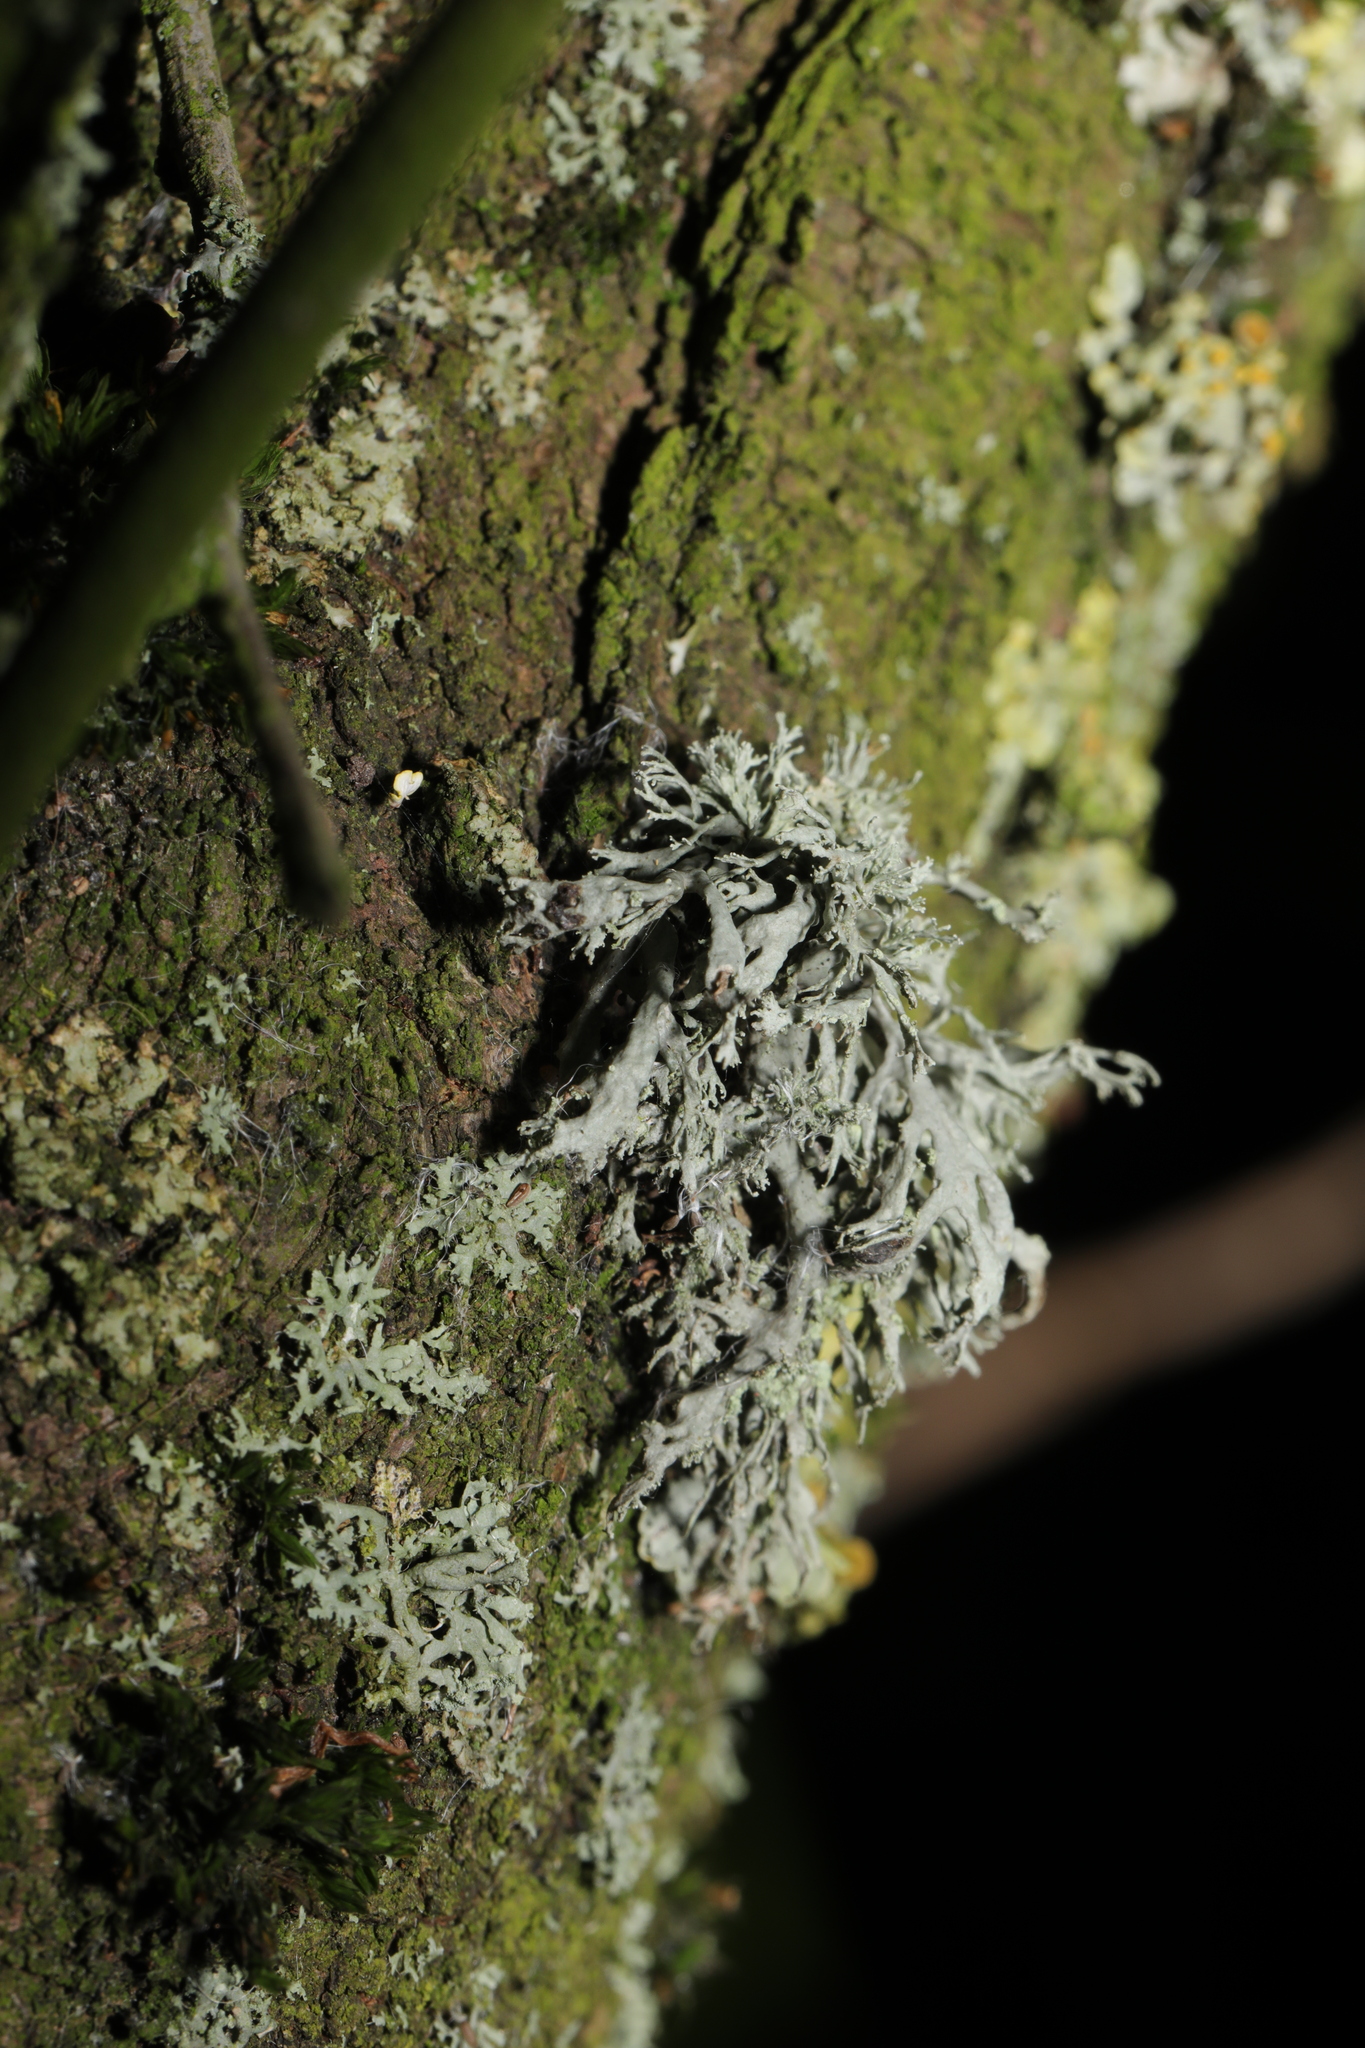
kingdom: Fungi
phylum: Ascomycota
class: Lecanoromycetes
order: Lecanorales
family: Ramalinaceae
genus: Ramalina
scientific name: Ramalina farinacea
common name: Farinose cartilage lichen
